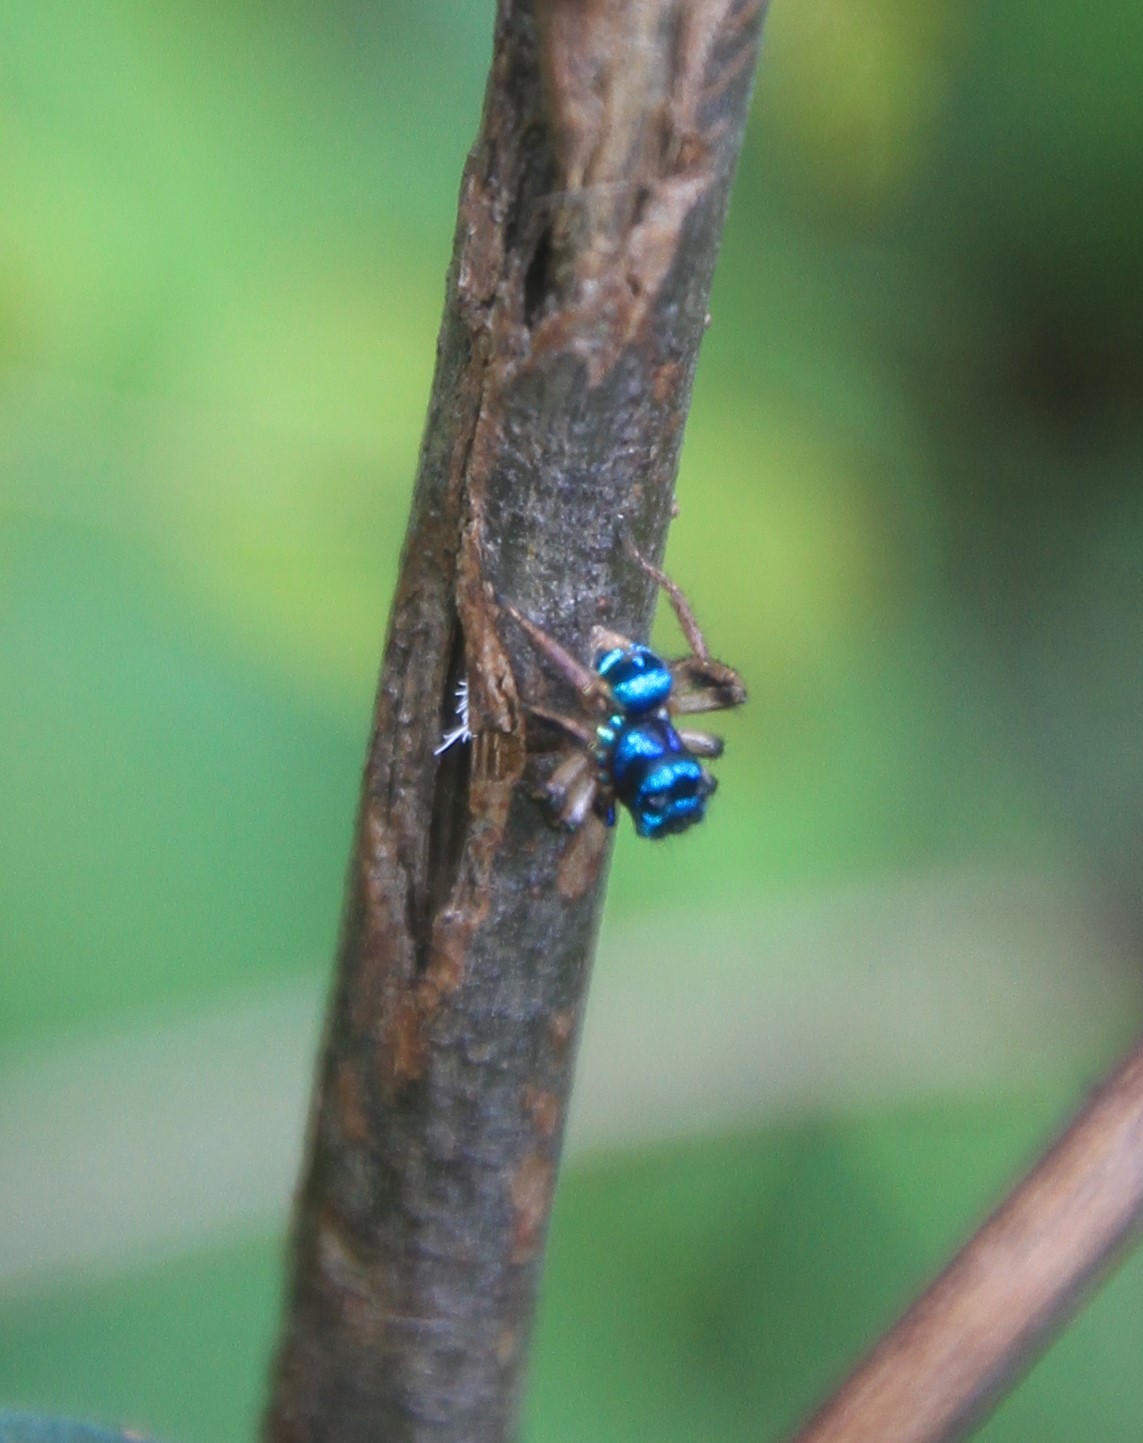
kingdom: Animalia
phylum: Arthropoda
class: Arachnida
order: Araneae
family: Salticidae
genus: Anasaitis
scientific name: Anasaitis locuples
